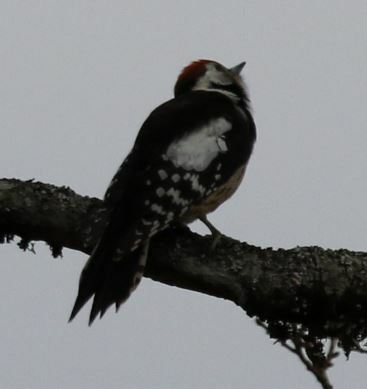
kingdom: Animalia
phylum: Chordata
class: Aves
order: Piciformes
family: Picidae
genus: Dendrocoptes
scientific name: Dendrocoptes medius
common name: Middle spotted woodpecker
